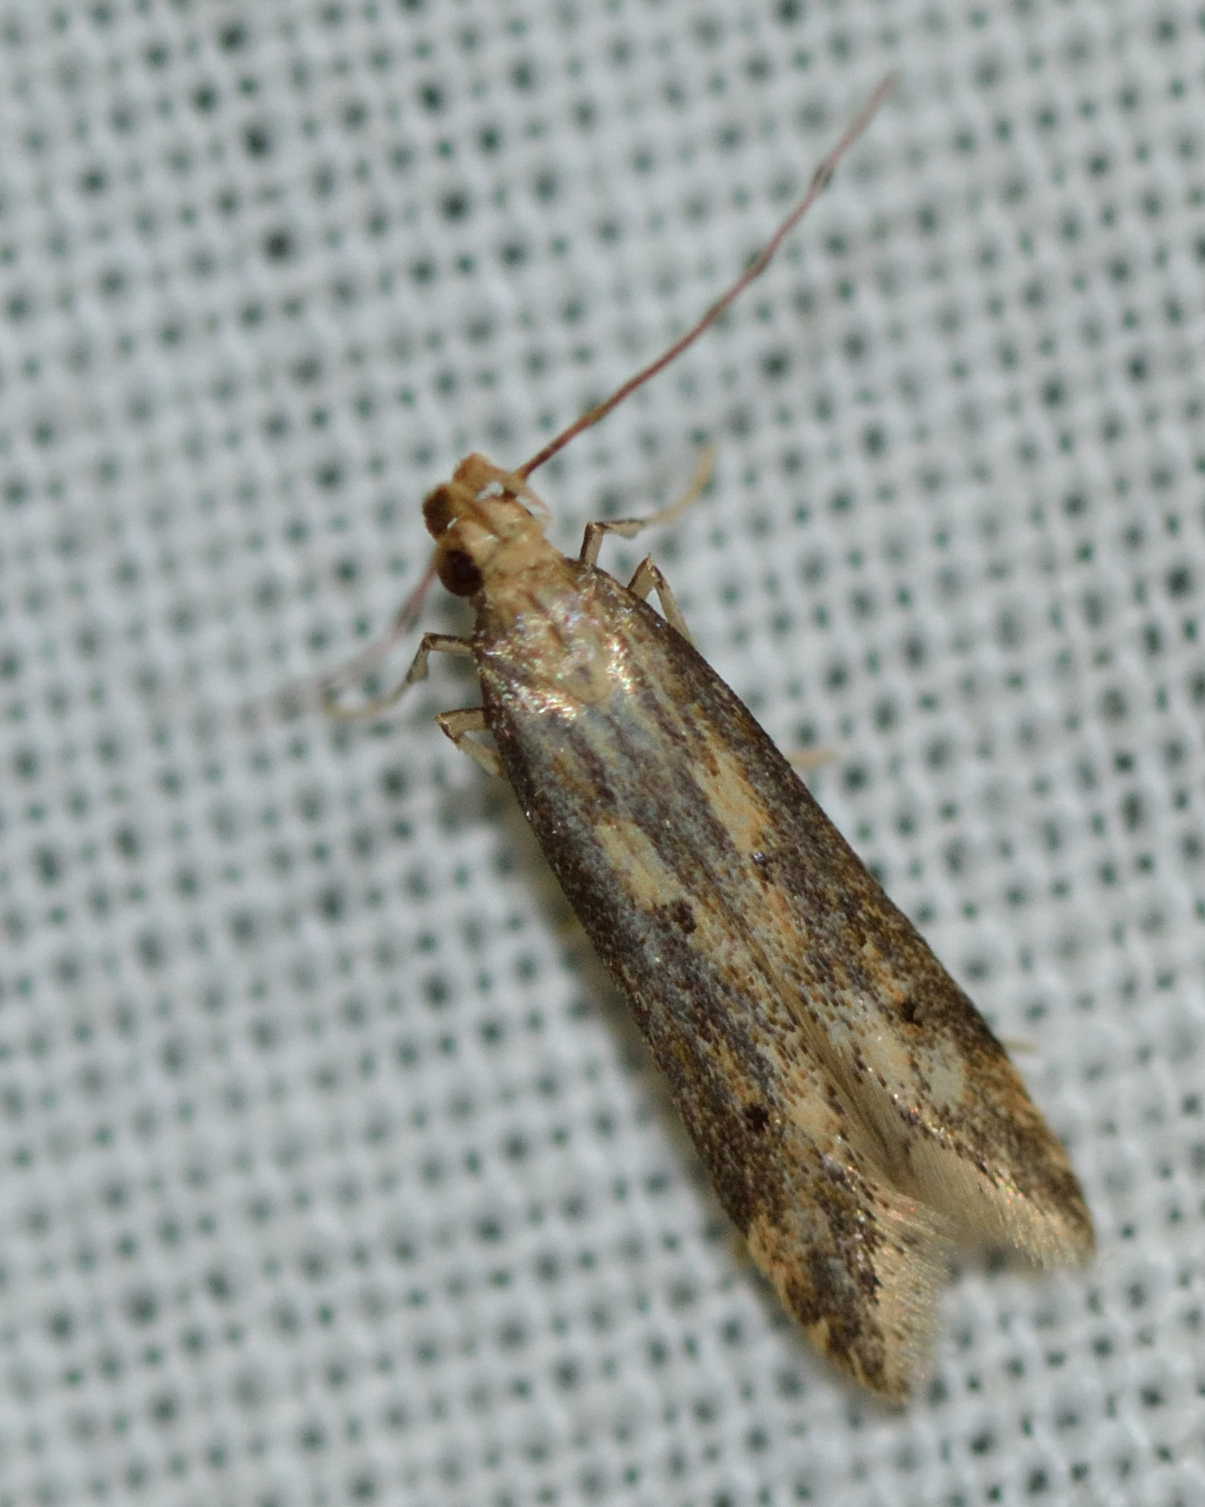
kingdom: Animalia
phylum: Arthropoda
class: Insecta
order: Lepidoptera
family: Gelechiidae
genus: Metzneria
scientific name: Metzneria lappella
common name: Burdock neb
